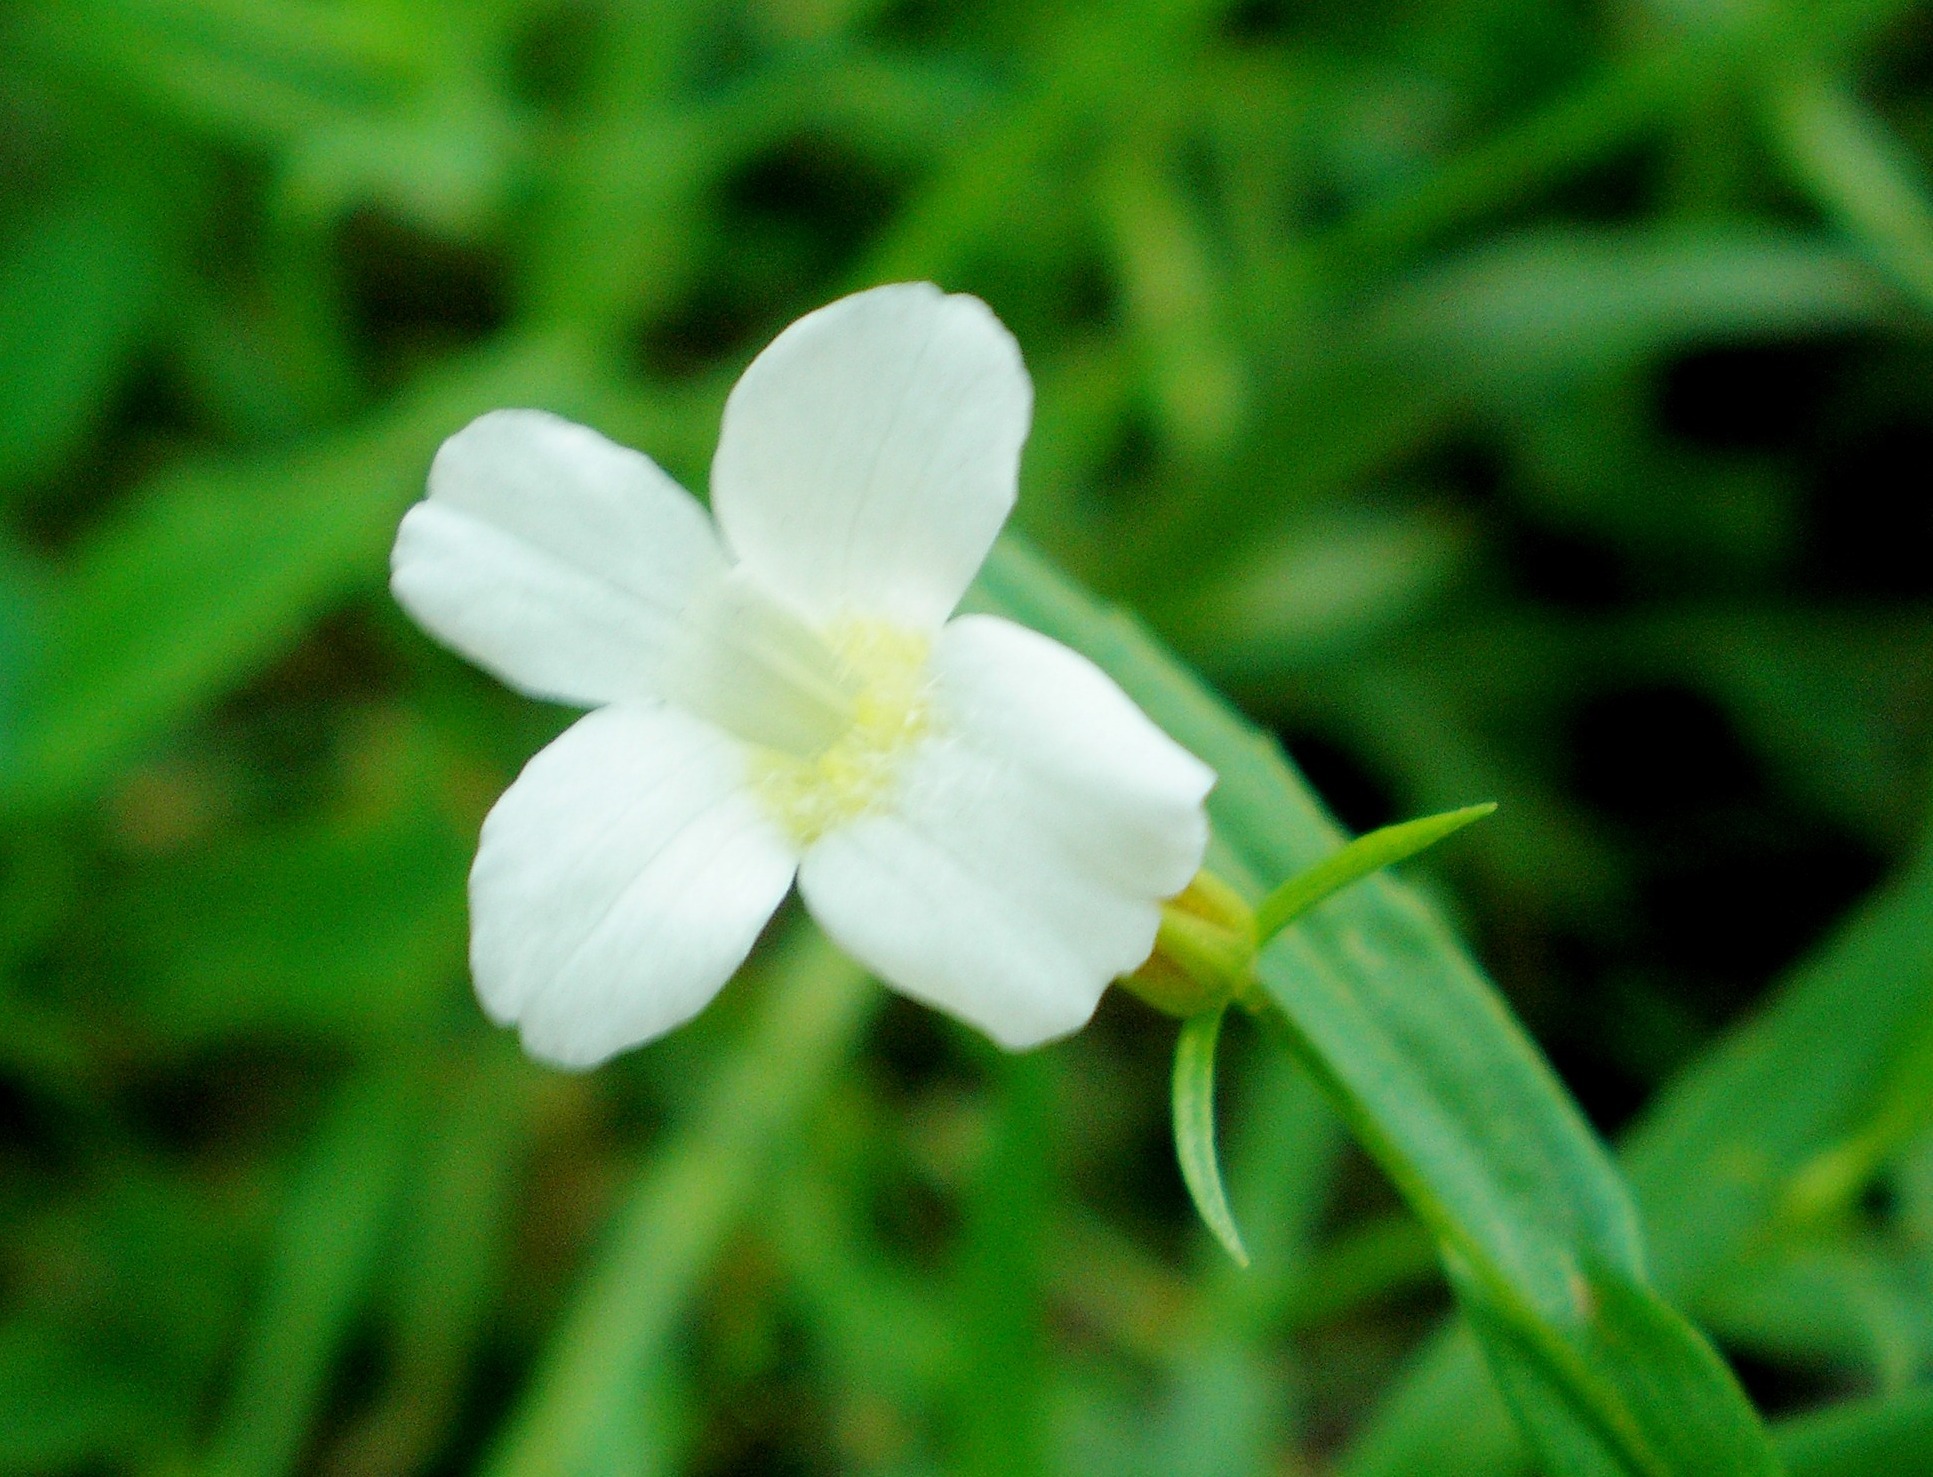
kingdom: Plantae
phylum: Tracheophyta
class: Magnoliopsida
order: Lamiales
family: Plantaginaceae
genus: Gratiola
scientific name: Gratiola officinalis
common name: Gratiola
